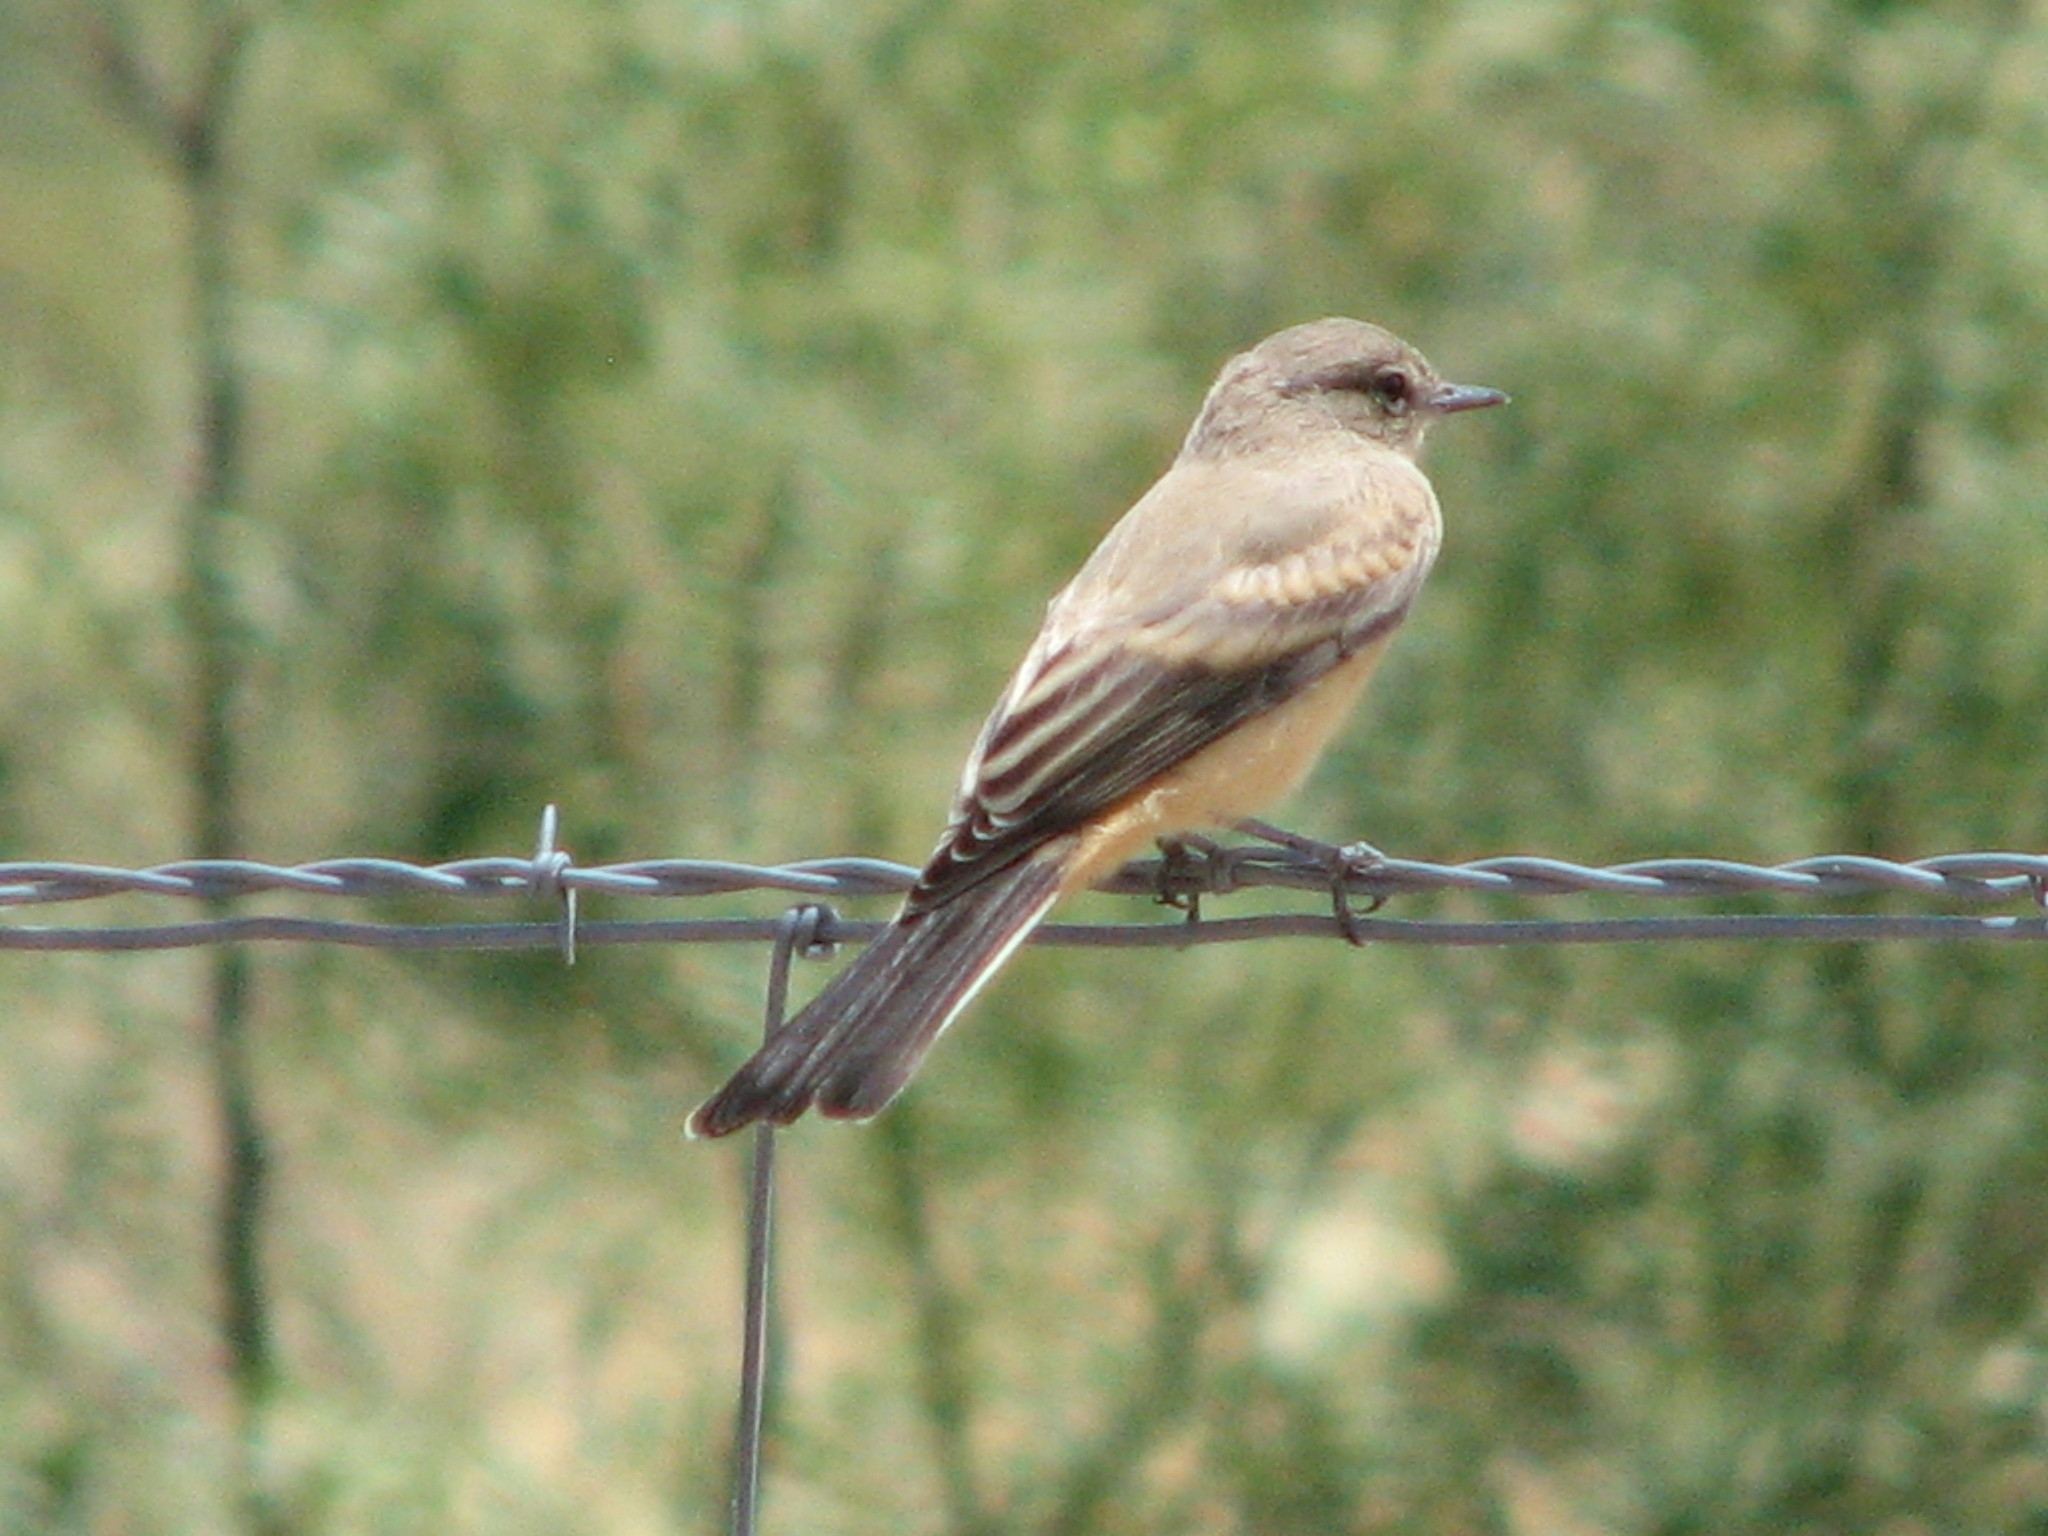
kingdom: Animalia
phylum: Chordata
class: Aves
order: Passeriformes
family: Tyrannidae
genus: Sayornis
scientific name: Sayornis saya
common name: Say's phoebe
